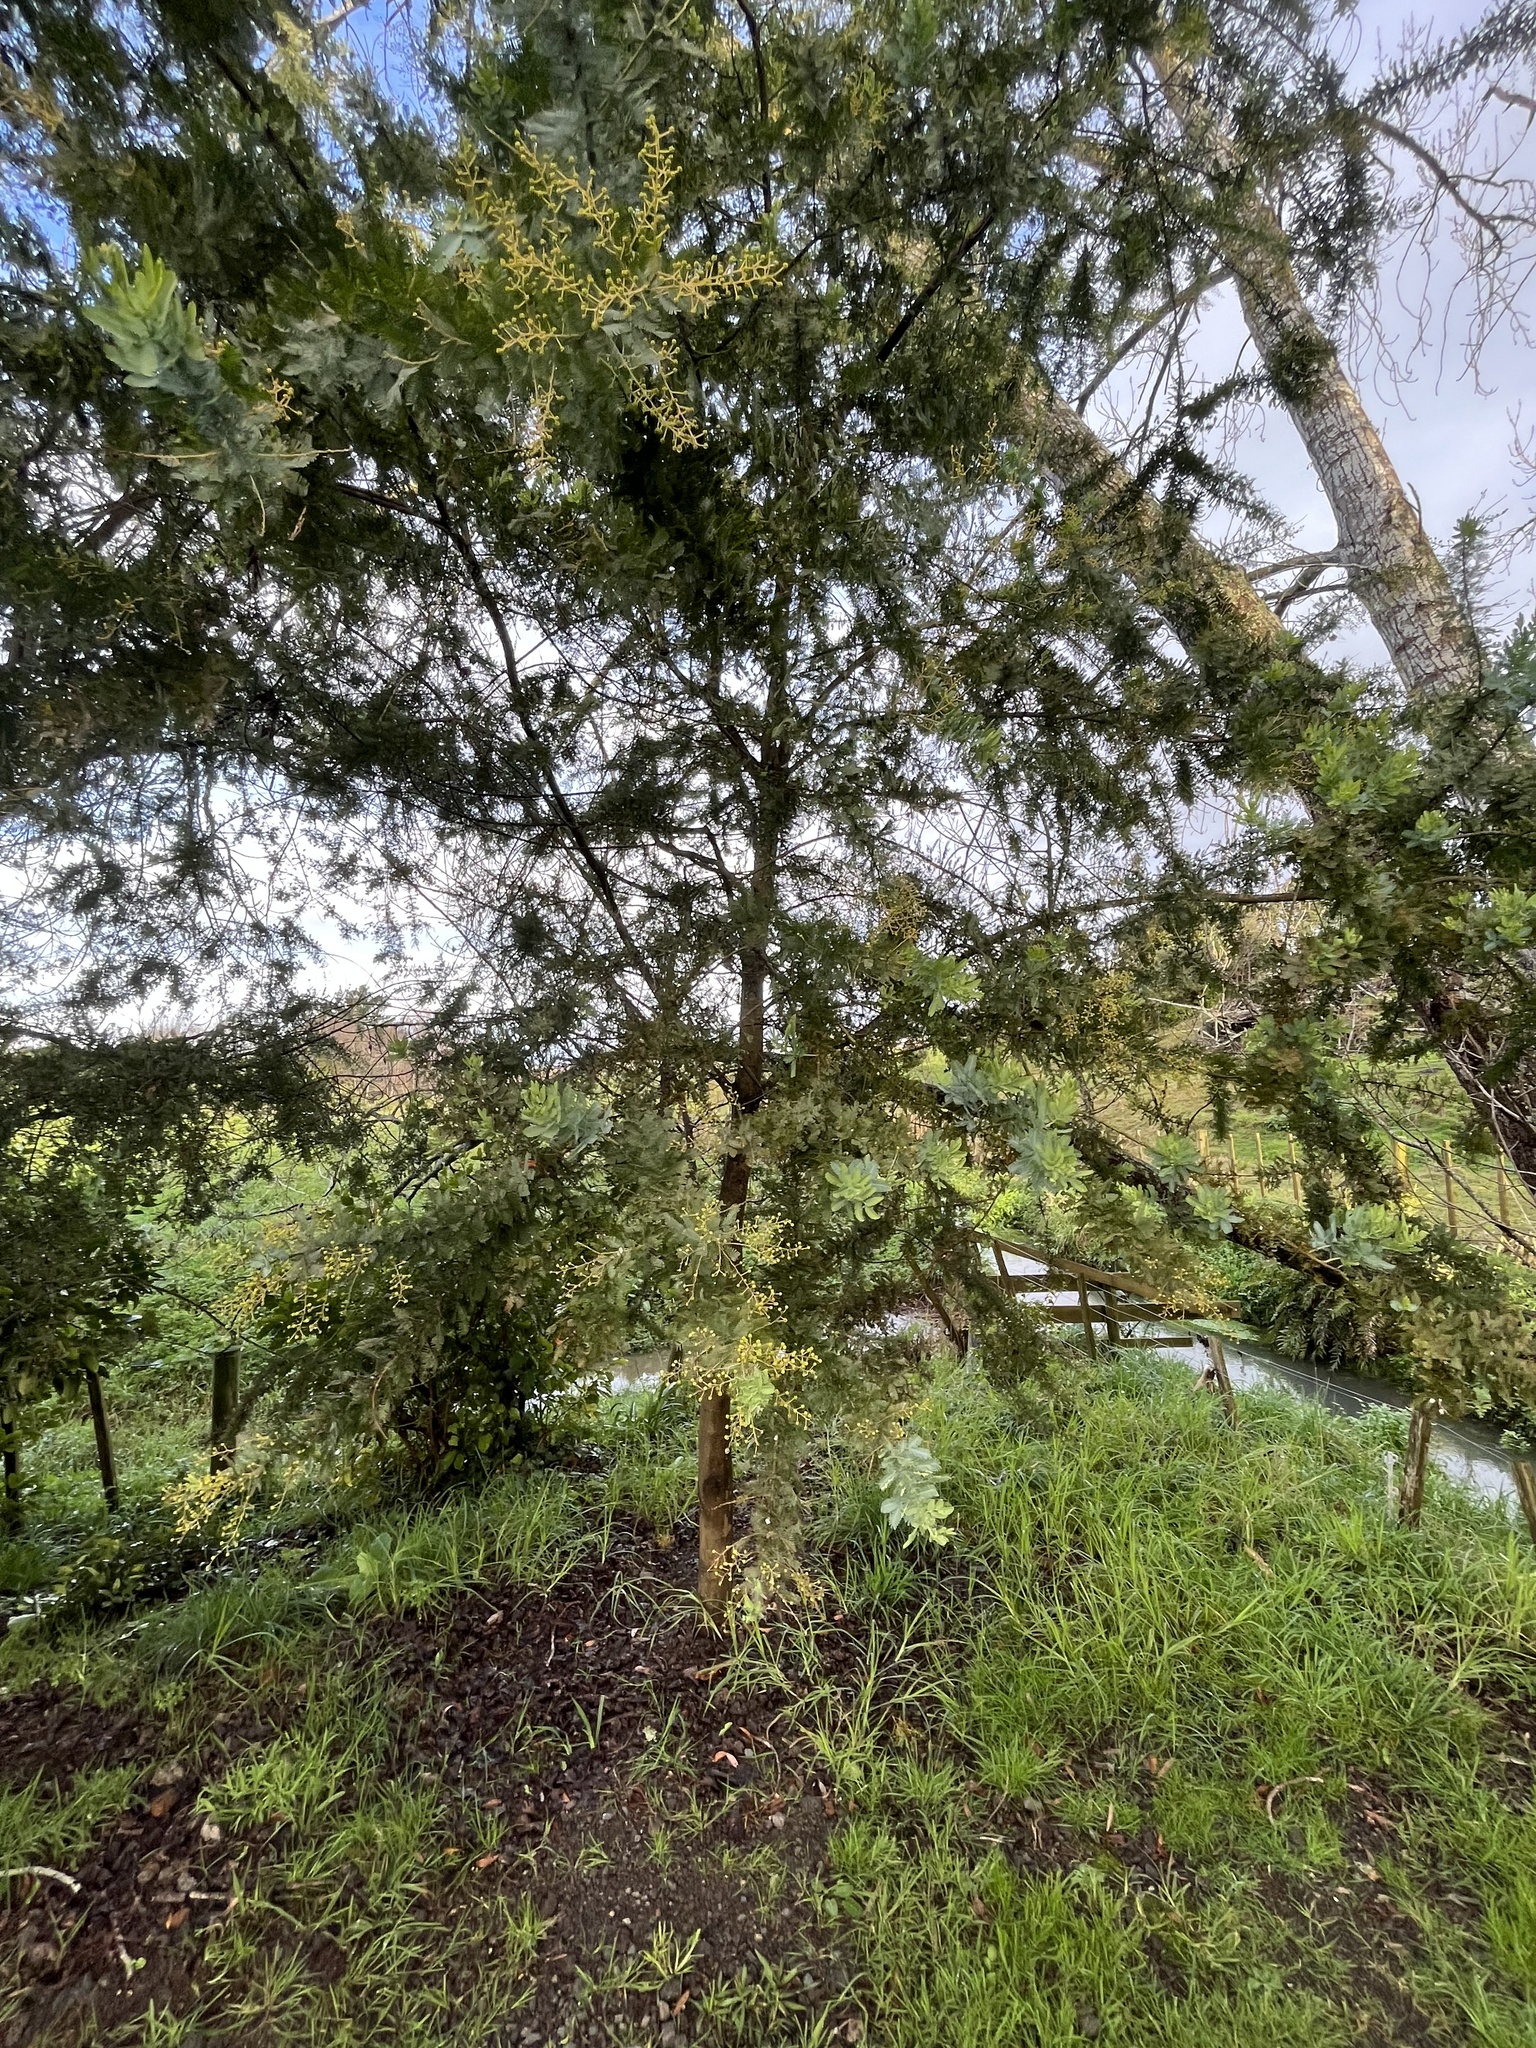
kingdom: Plantae
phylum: Tracheophyta
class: Magnoliopsida
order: Fabales
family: Fabaceae
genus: Acacia
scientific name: Acacia baileyana
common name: Cootamundra wattle
